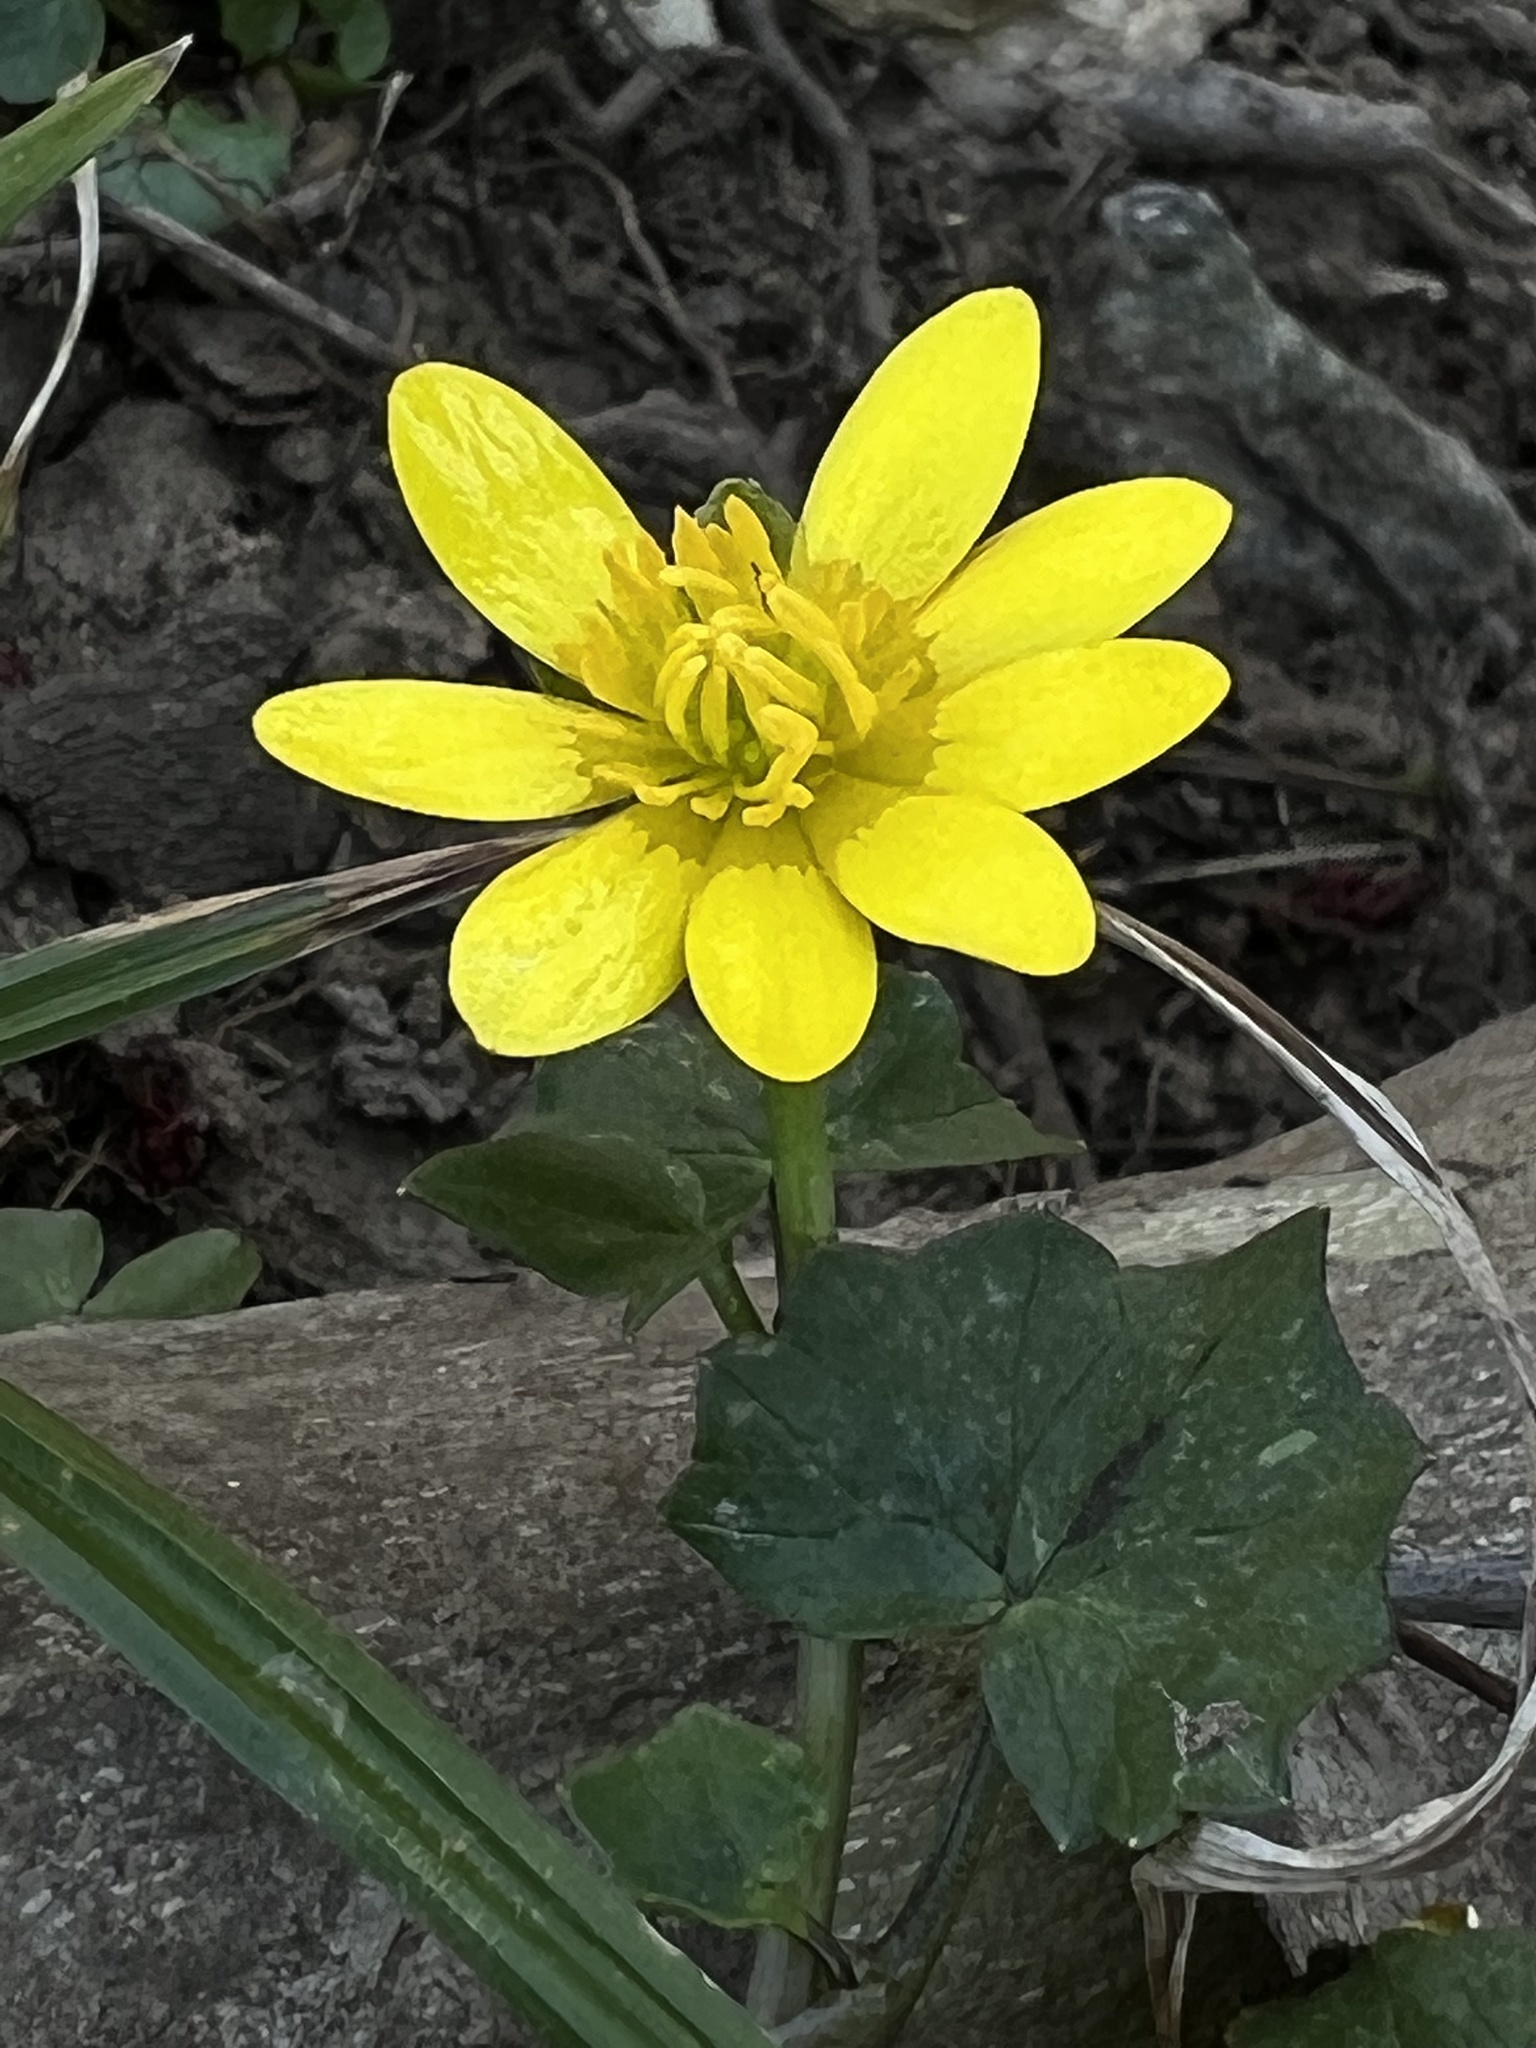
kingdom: Plantae
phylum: Tracheophyta
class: Magnoliopsida
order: Ranunculales
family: Ranunculaceae
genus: Ficaria
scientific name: Ficaria verna
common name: Lesser celandine
